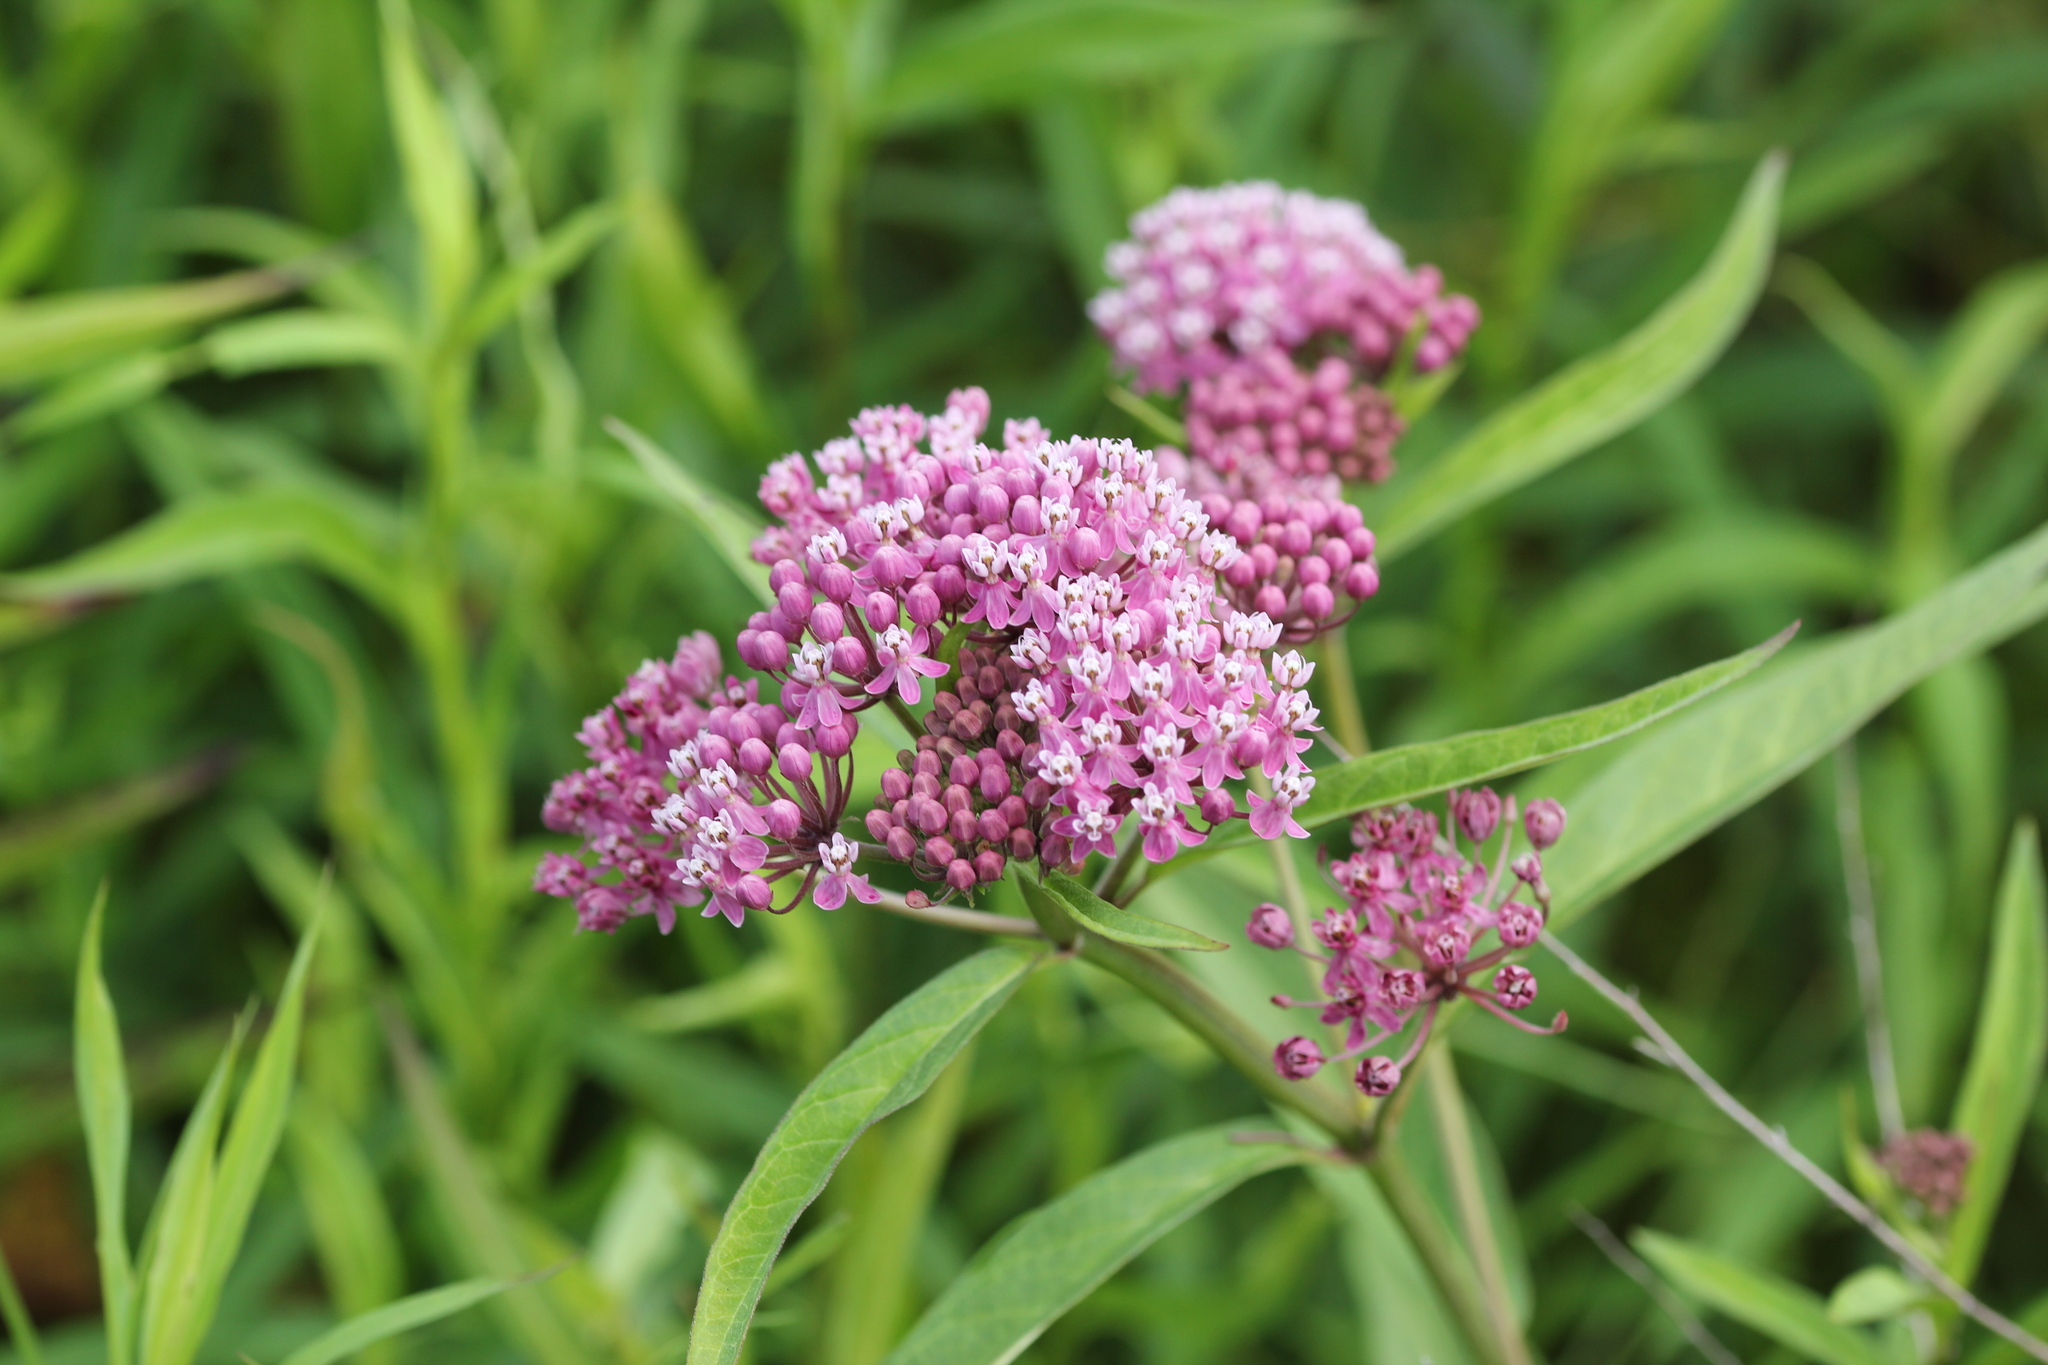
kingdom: Plantae
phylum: Tracheophyta
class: Magnoliopsida
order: Gentianales
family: Apocynaceae
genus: Asclepias
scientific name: Asclepias incarnata
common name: Swamp milkweed
